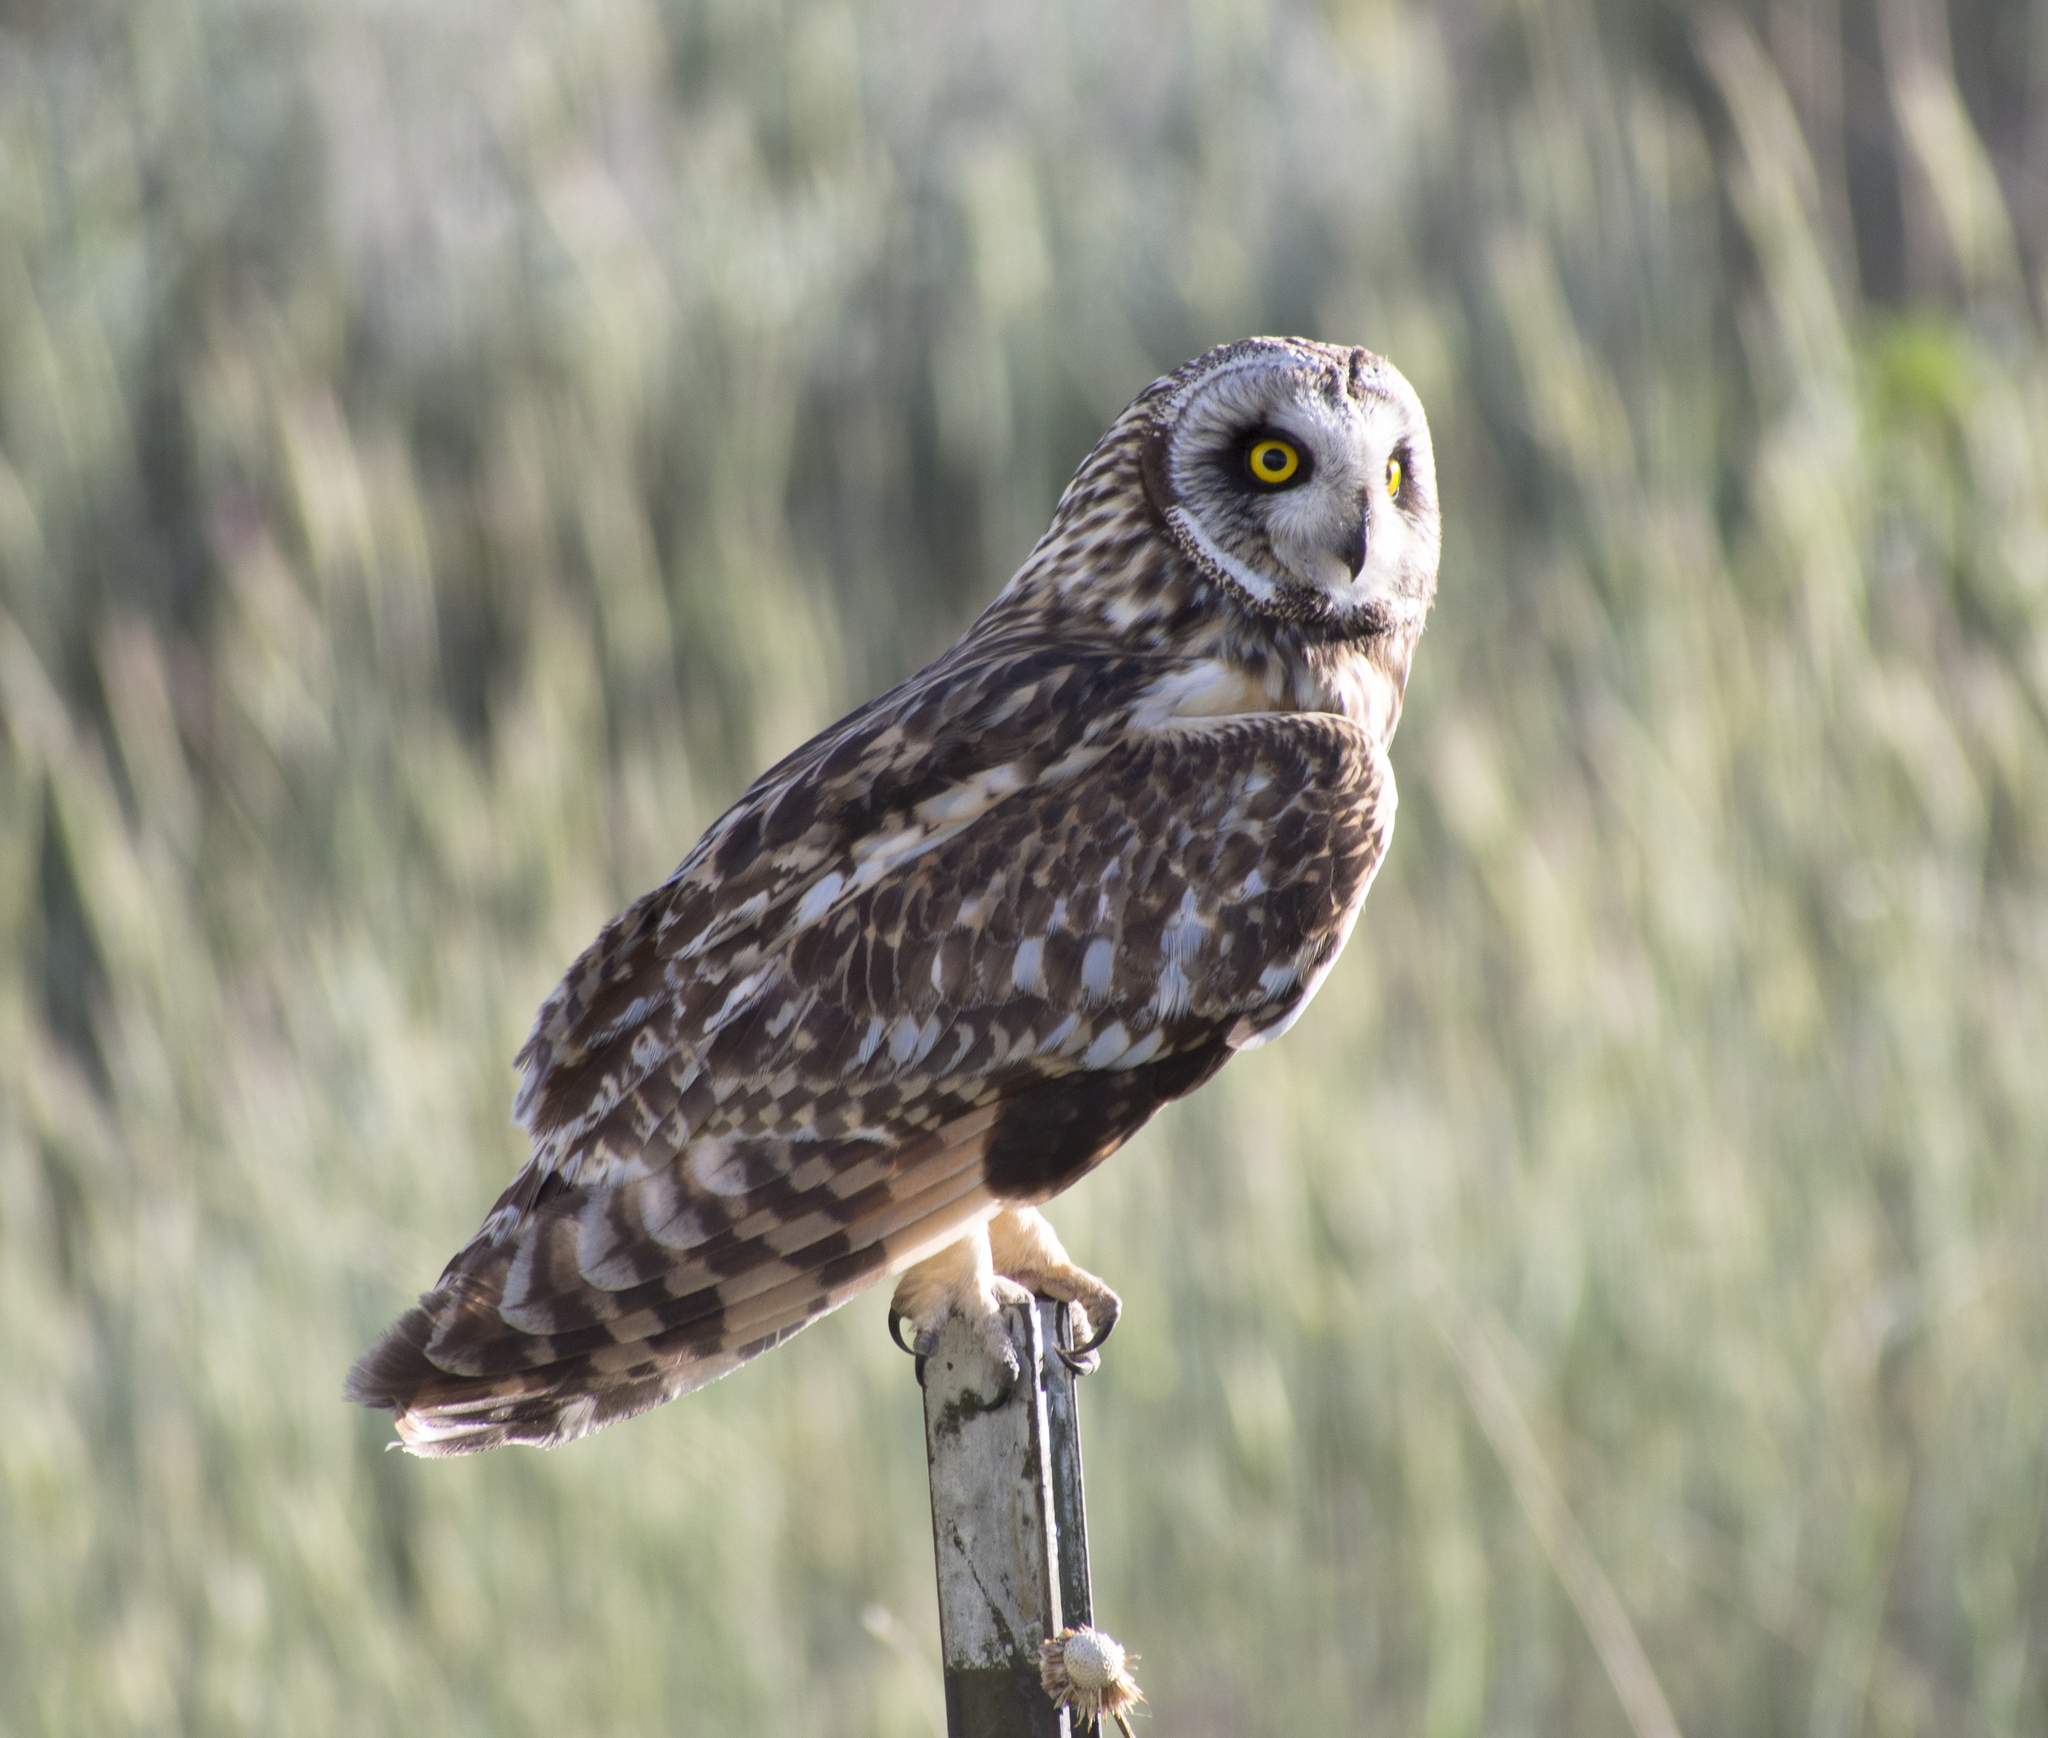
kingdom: Animalia
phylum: Chordata
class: Aves
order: Strigiformes
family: Strigidae
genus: Asio
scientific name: Asio flammeus
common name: Short-eared owl
